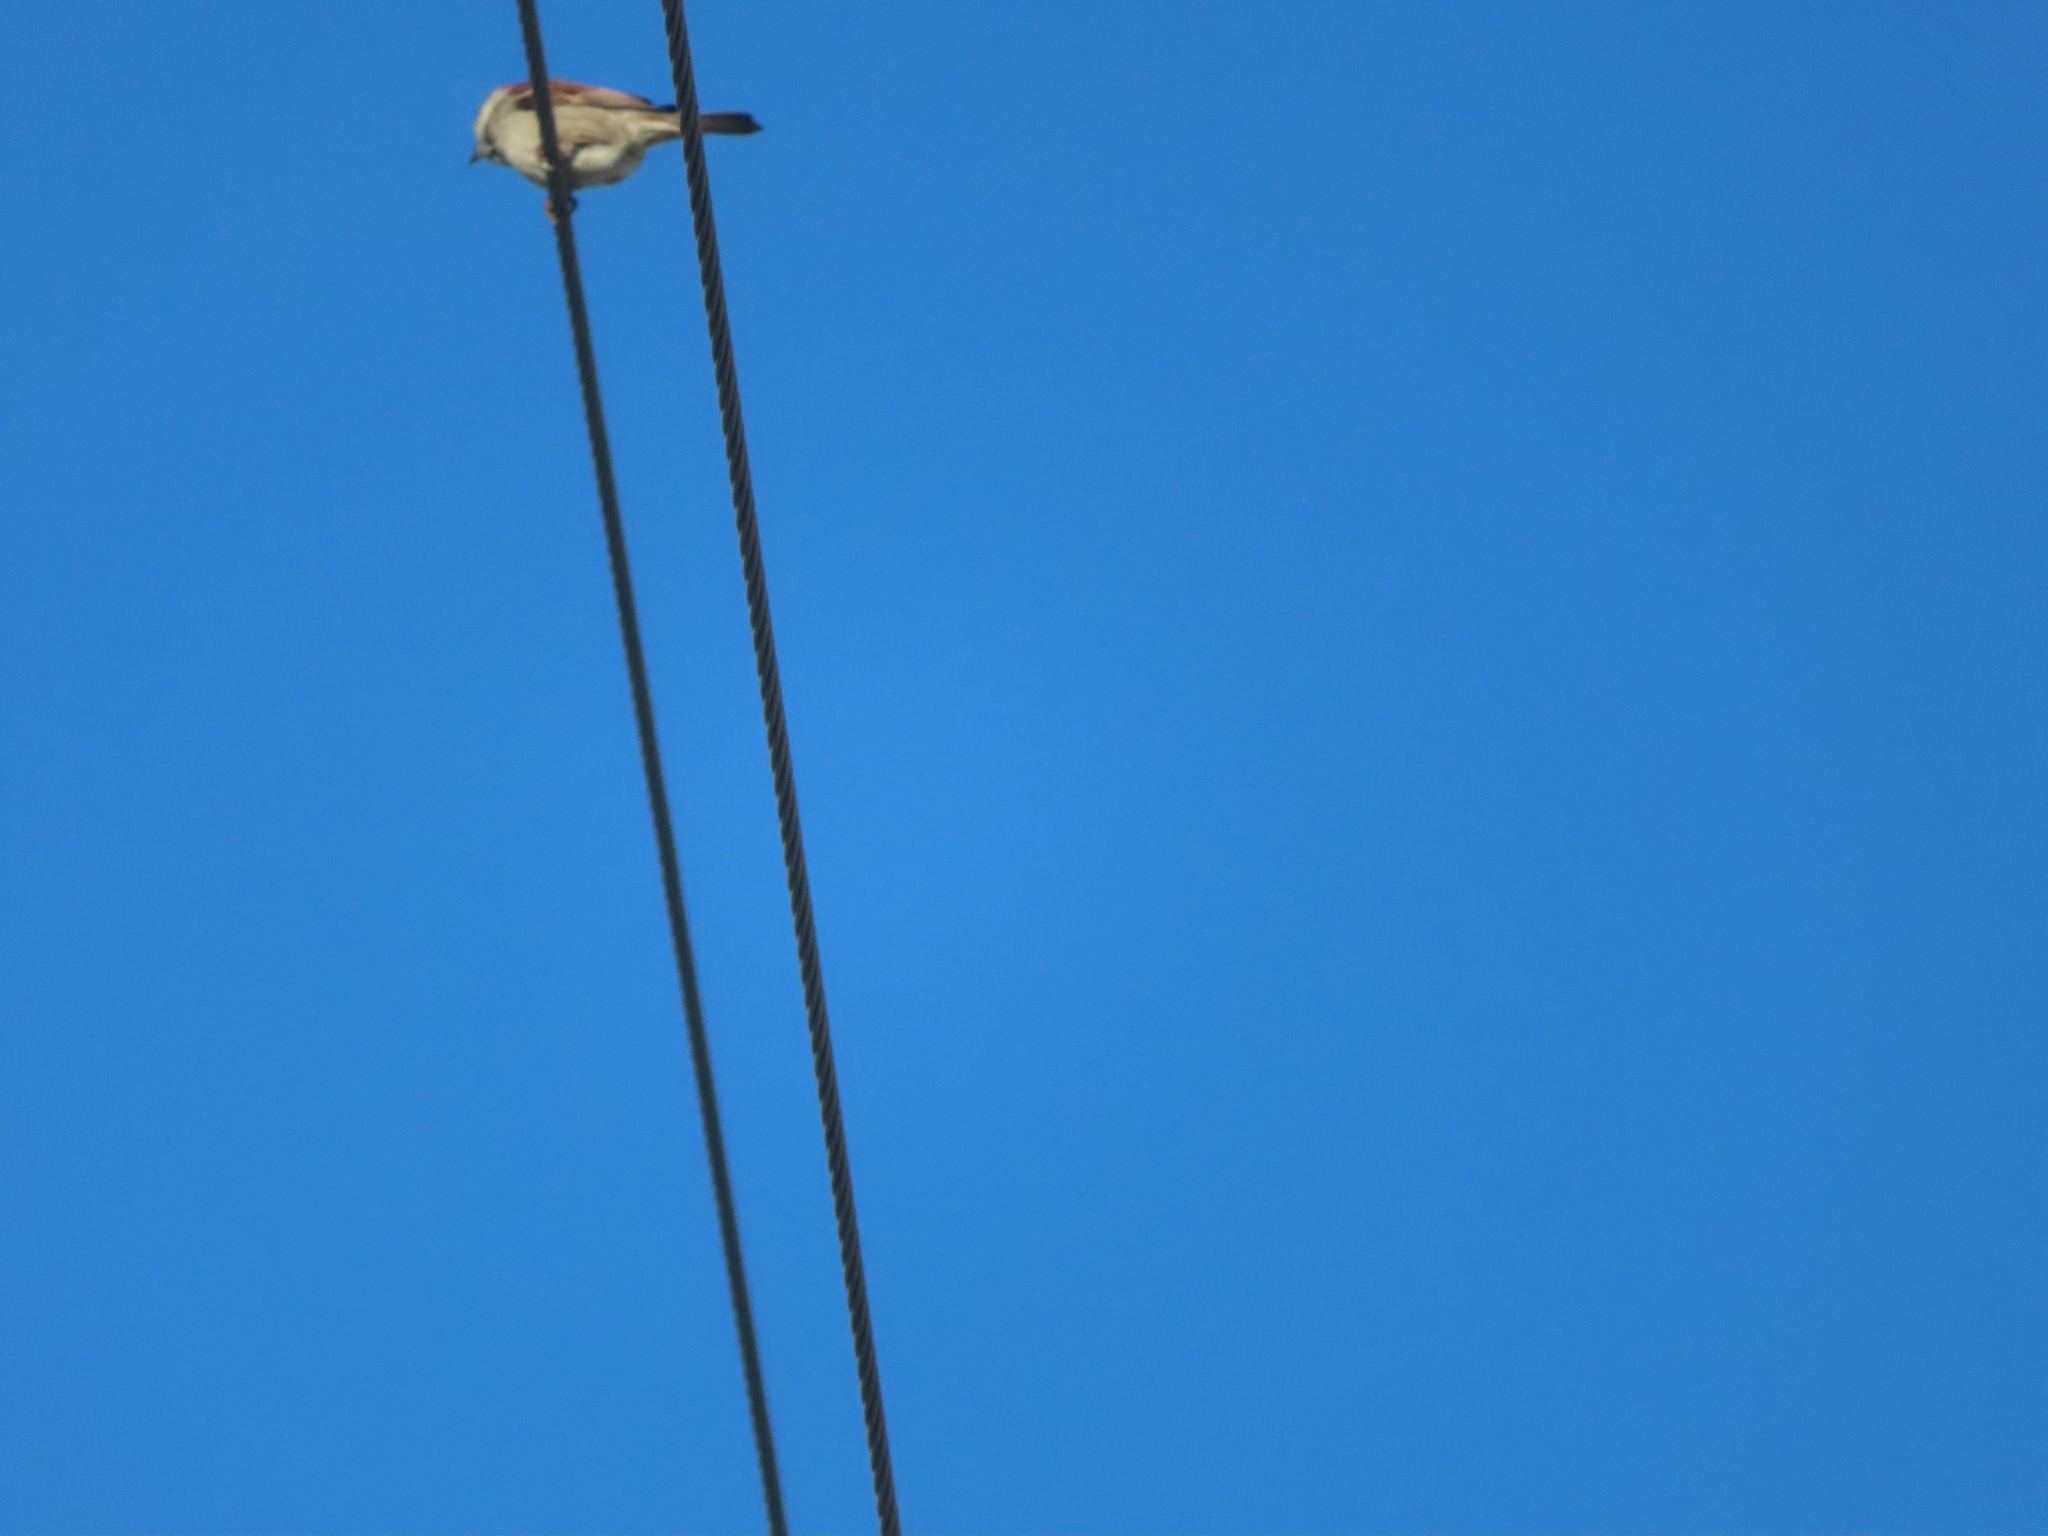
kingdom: Animalia
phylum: Chordata
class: Aves
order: Passeriformes
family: Passeridae
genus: Passer
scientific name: Passer domesticus
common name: House sparrow
